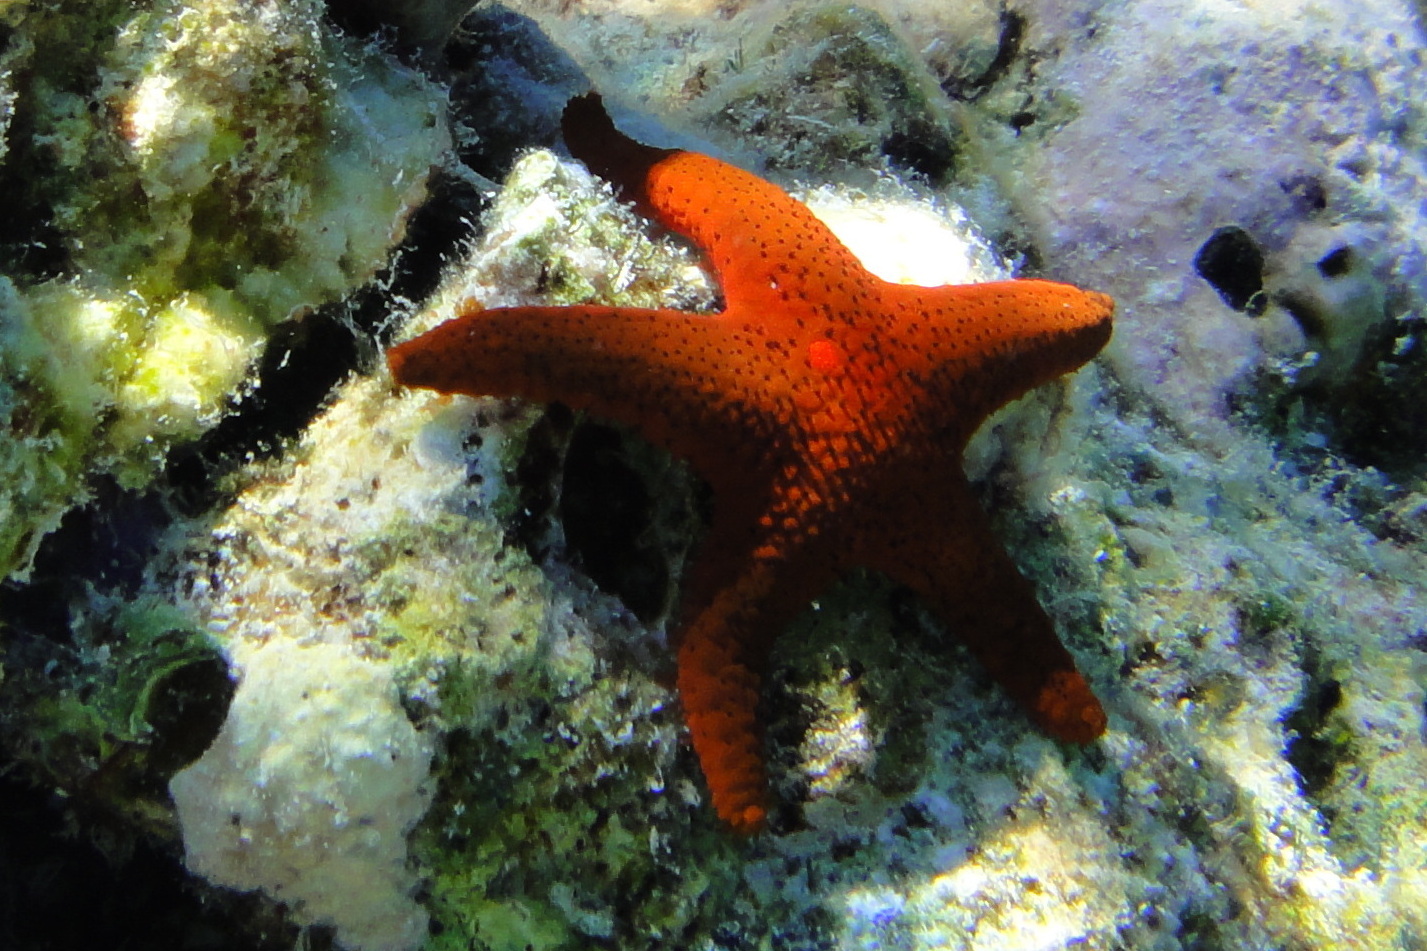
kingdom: Animalia
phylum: Echinodermata
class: Asteroidea
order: Valvatida
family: Goniasteridae
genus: Fromia
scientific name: Fromia milleporella
